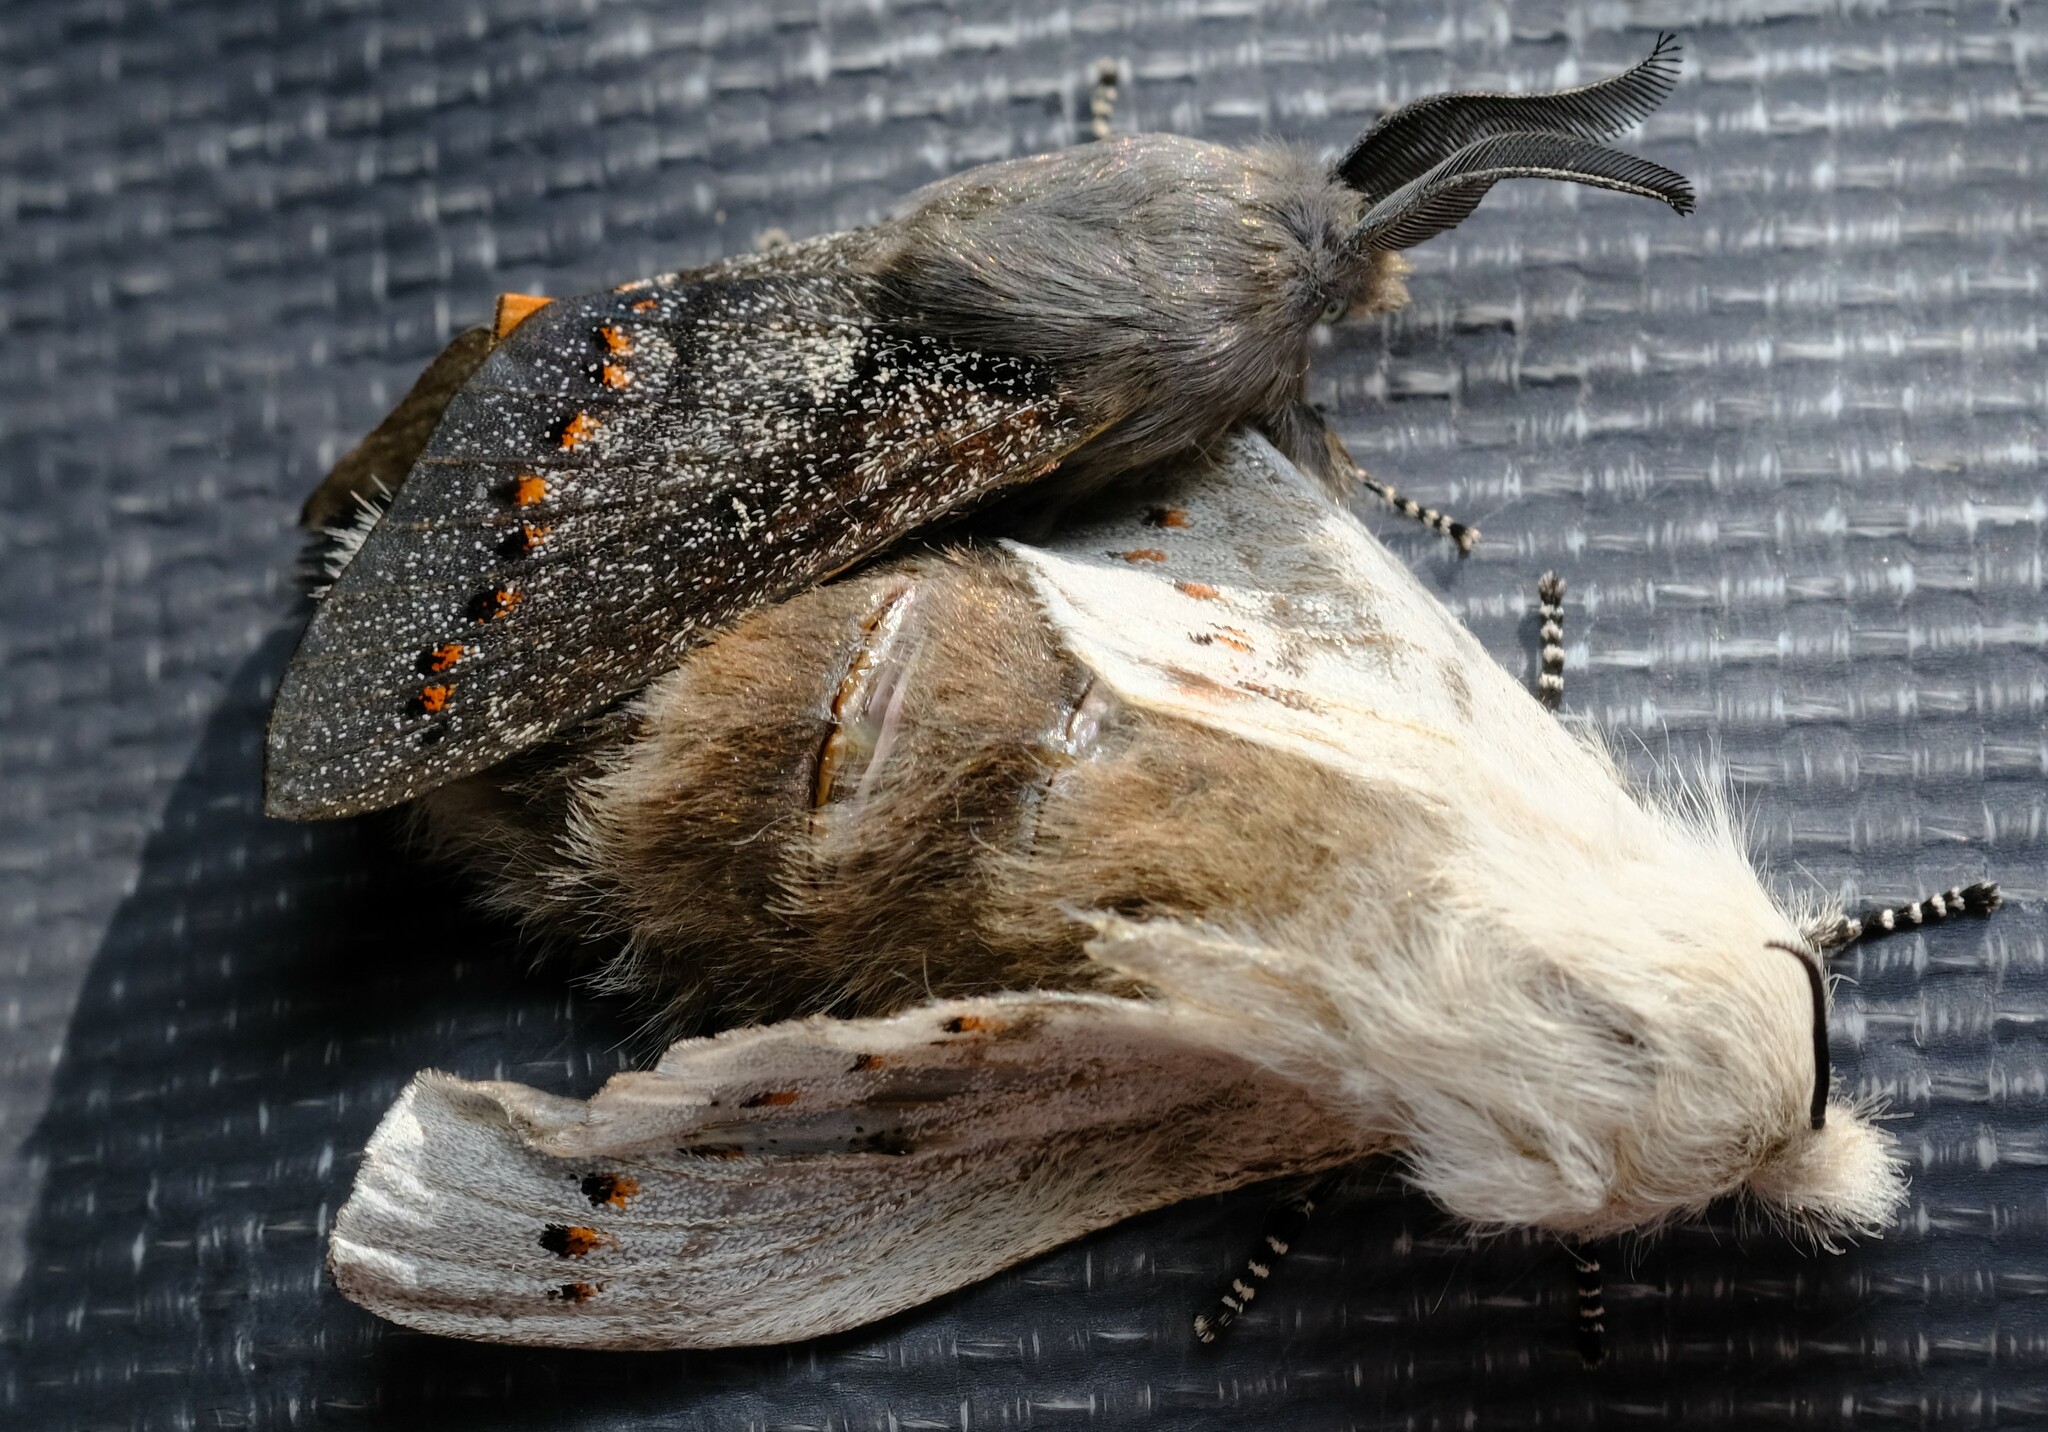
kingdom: Animalia
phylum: Arthropoda
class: Insecta
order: Lepidoptera
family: Lasiocampidae
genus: Pinara
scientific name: Pinara obliqua
